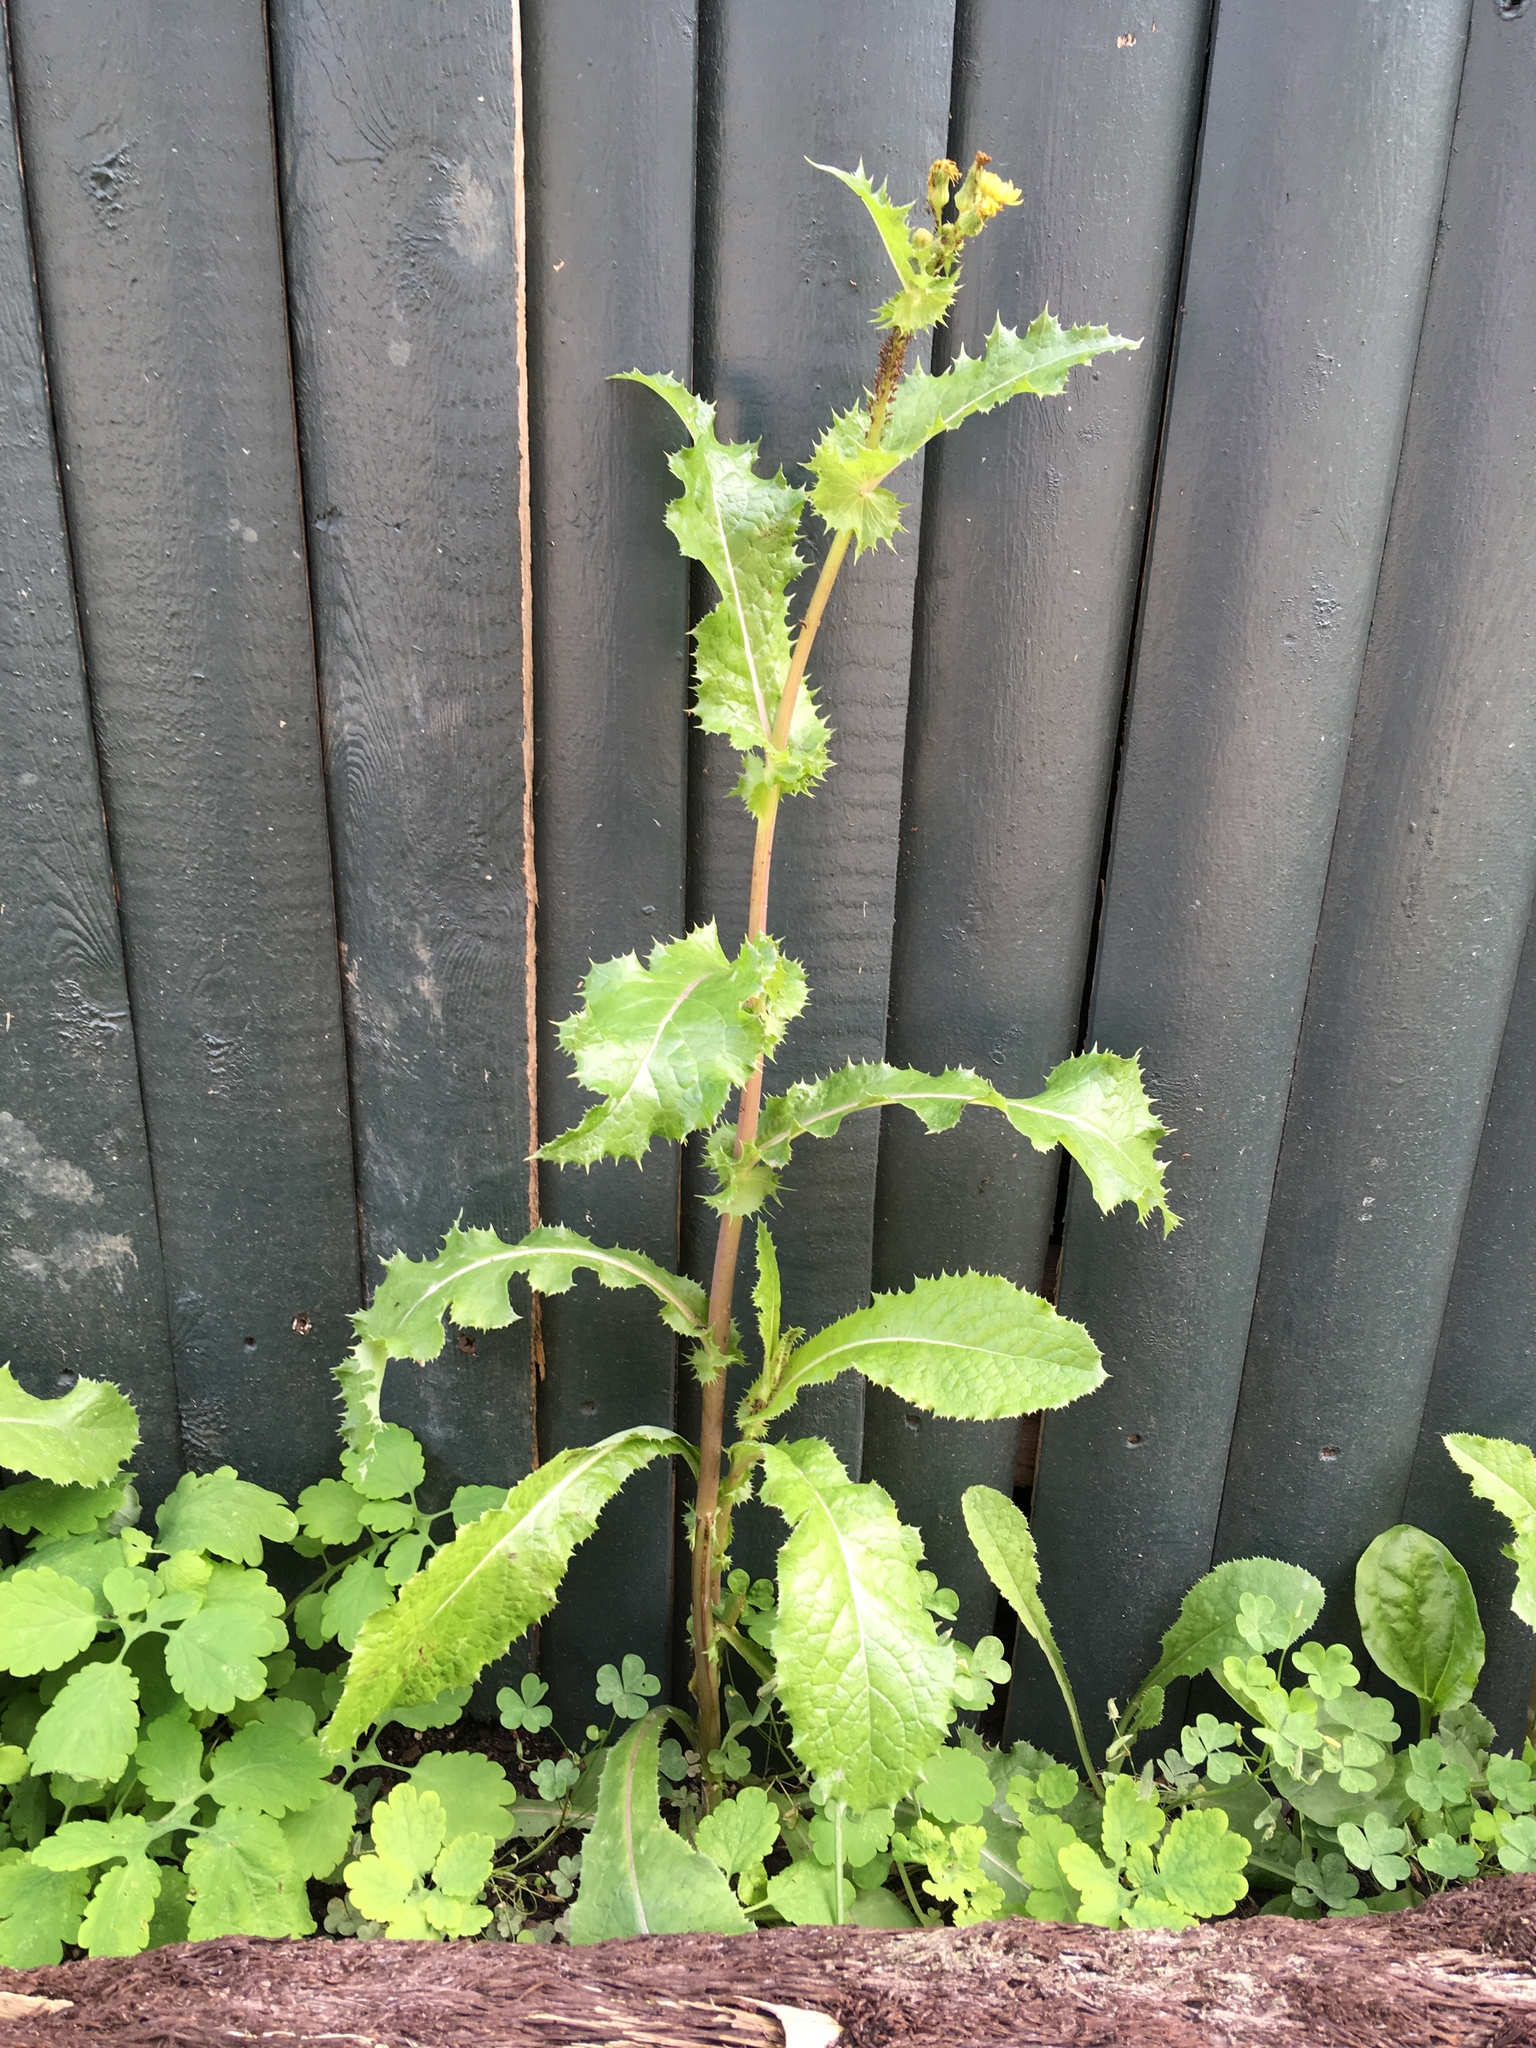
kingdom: Plantae
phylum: Tracheophyta
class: Magnoliopsida
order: Asterales
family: Asteraceae
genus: Sonchus
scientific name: Sonchus asper
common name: Prickly sow-thistle
